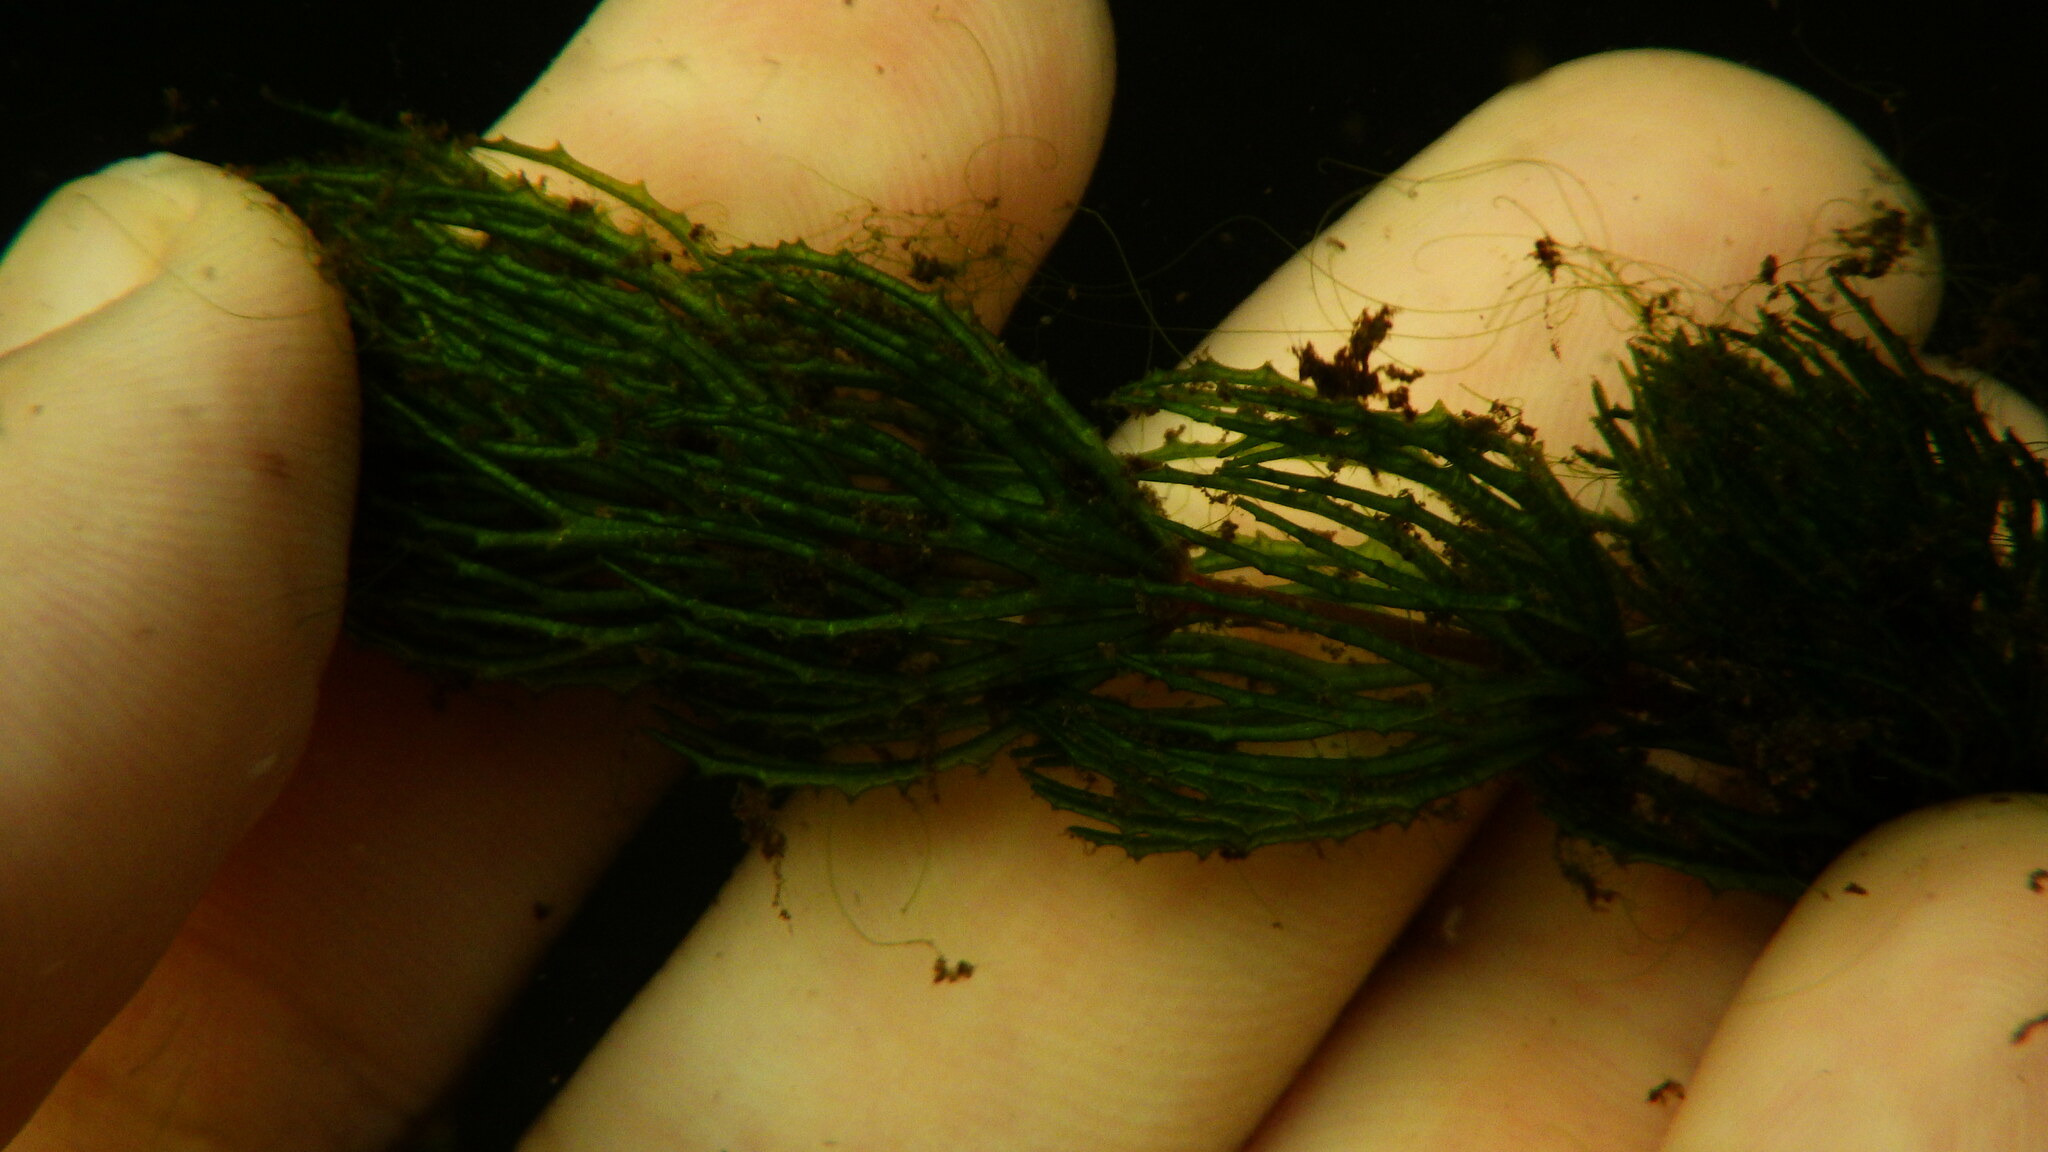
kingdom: Plantae
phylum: Tracheophyta
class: Magnoliopsida
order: Ceratophyllales
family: Ceratophyllaceae
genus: Ceratophyllum
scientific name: Ceratophyllum demersum
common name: Rigid hornwort
